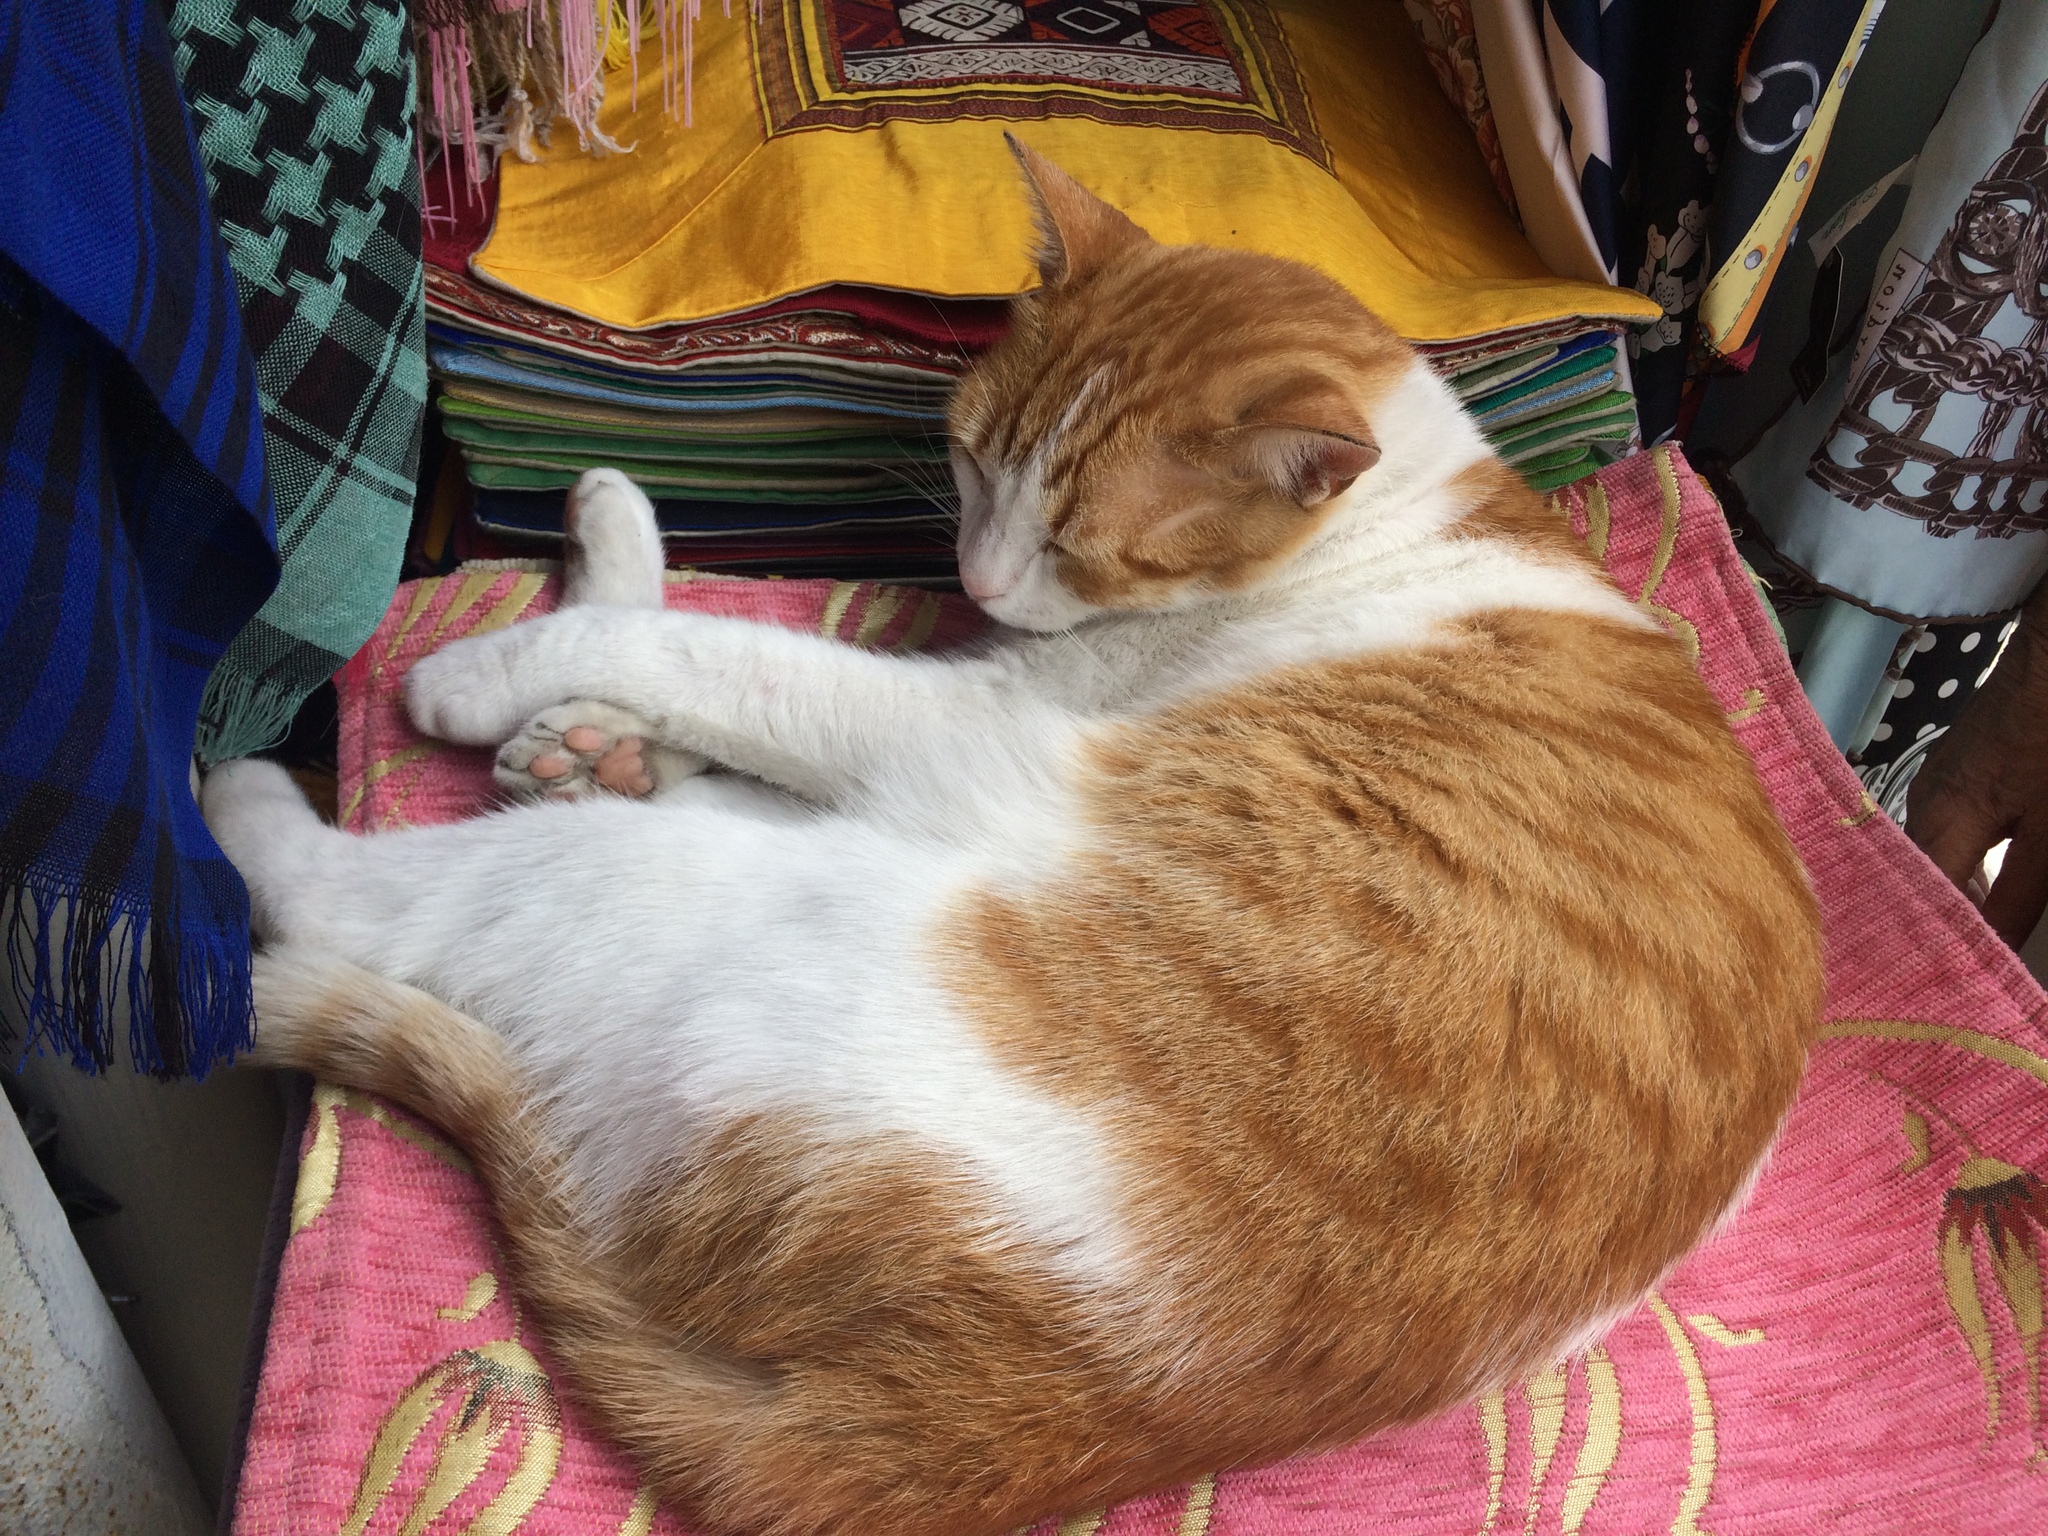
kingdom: Animalia
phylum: Chordata
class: Mammalia
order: Carnivora
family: Felidae
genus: Felis
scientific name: Felis catus
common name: Domestic cat
